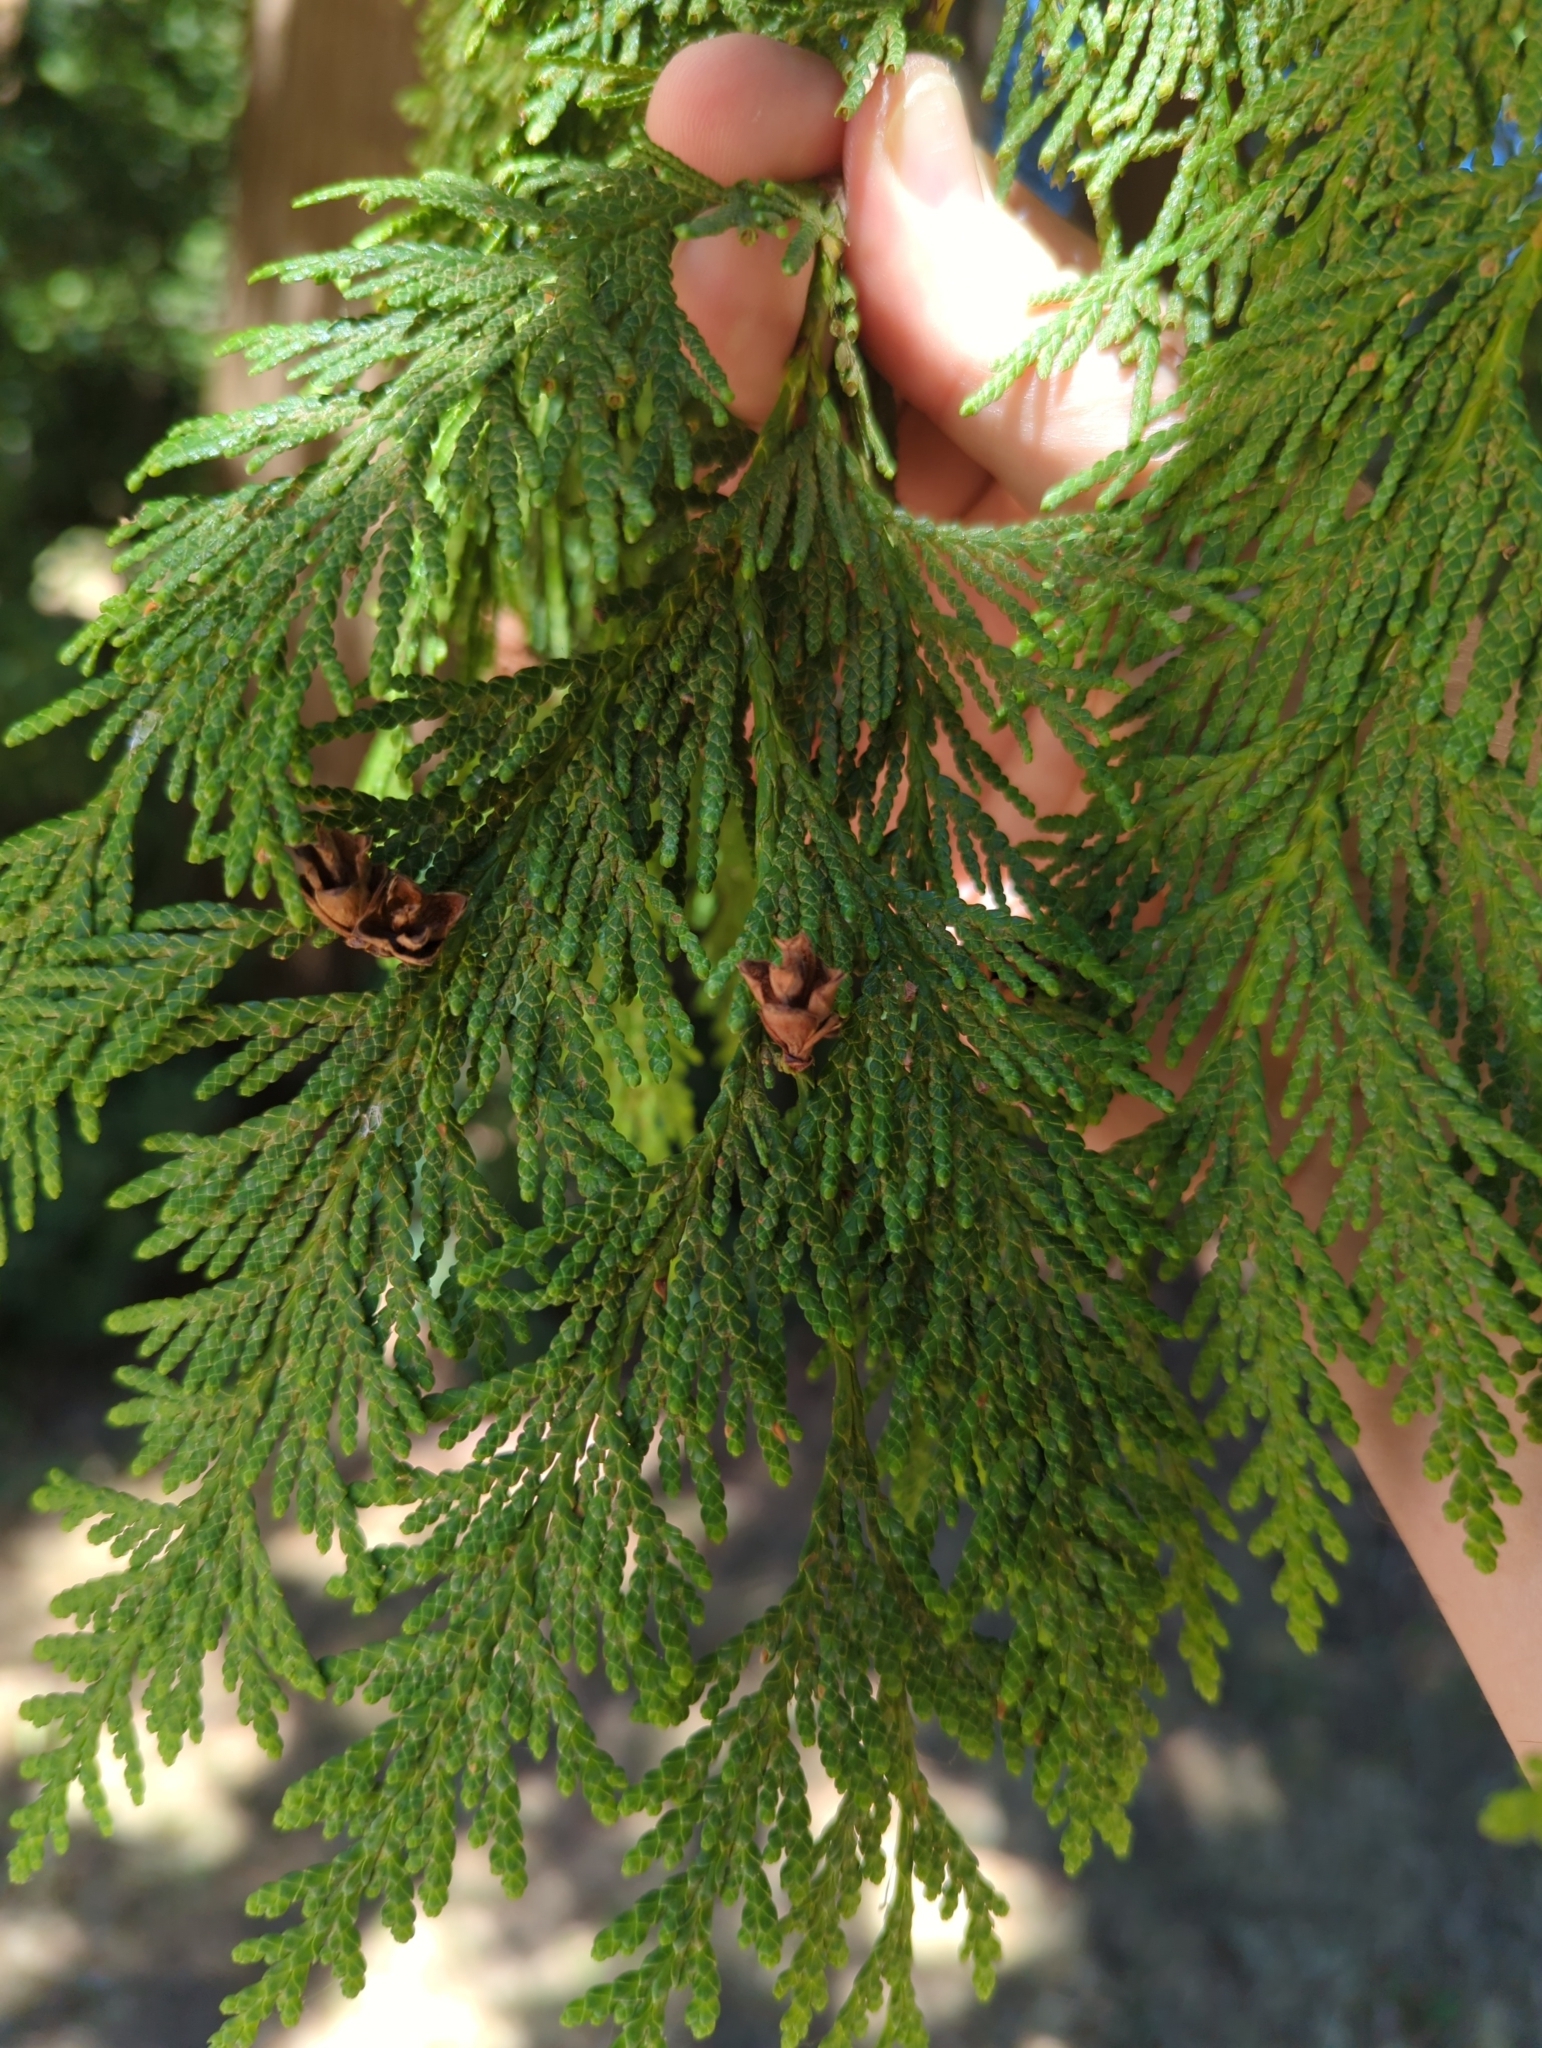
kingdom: Plantae
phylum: Tracheophyta
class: Pinopsida
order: Pinales
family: Cupressaceae
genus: Thuja
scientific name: Thuja plicata
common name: Western red-cedar
